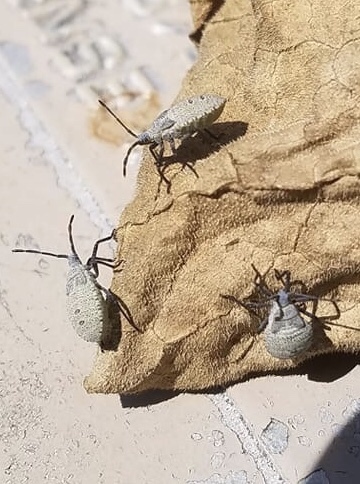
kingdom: Animalia
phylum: Arthropoda
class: Insecta
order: Hemiptera
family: Coreidae
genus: Anasa
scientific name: Anasa tristis
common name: Squash bug
